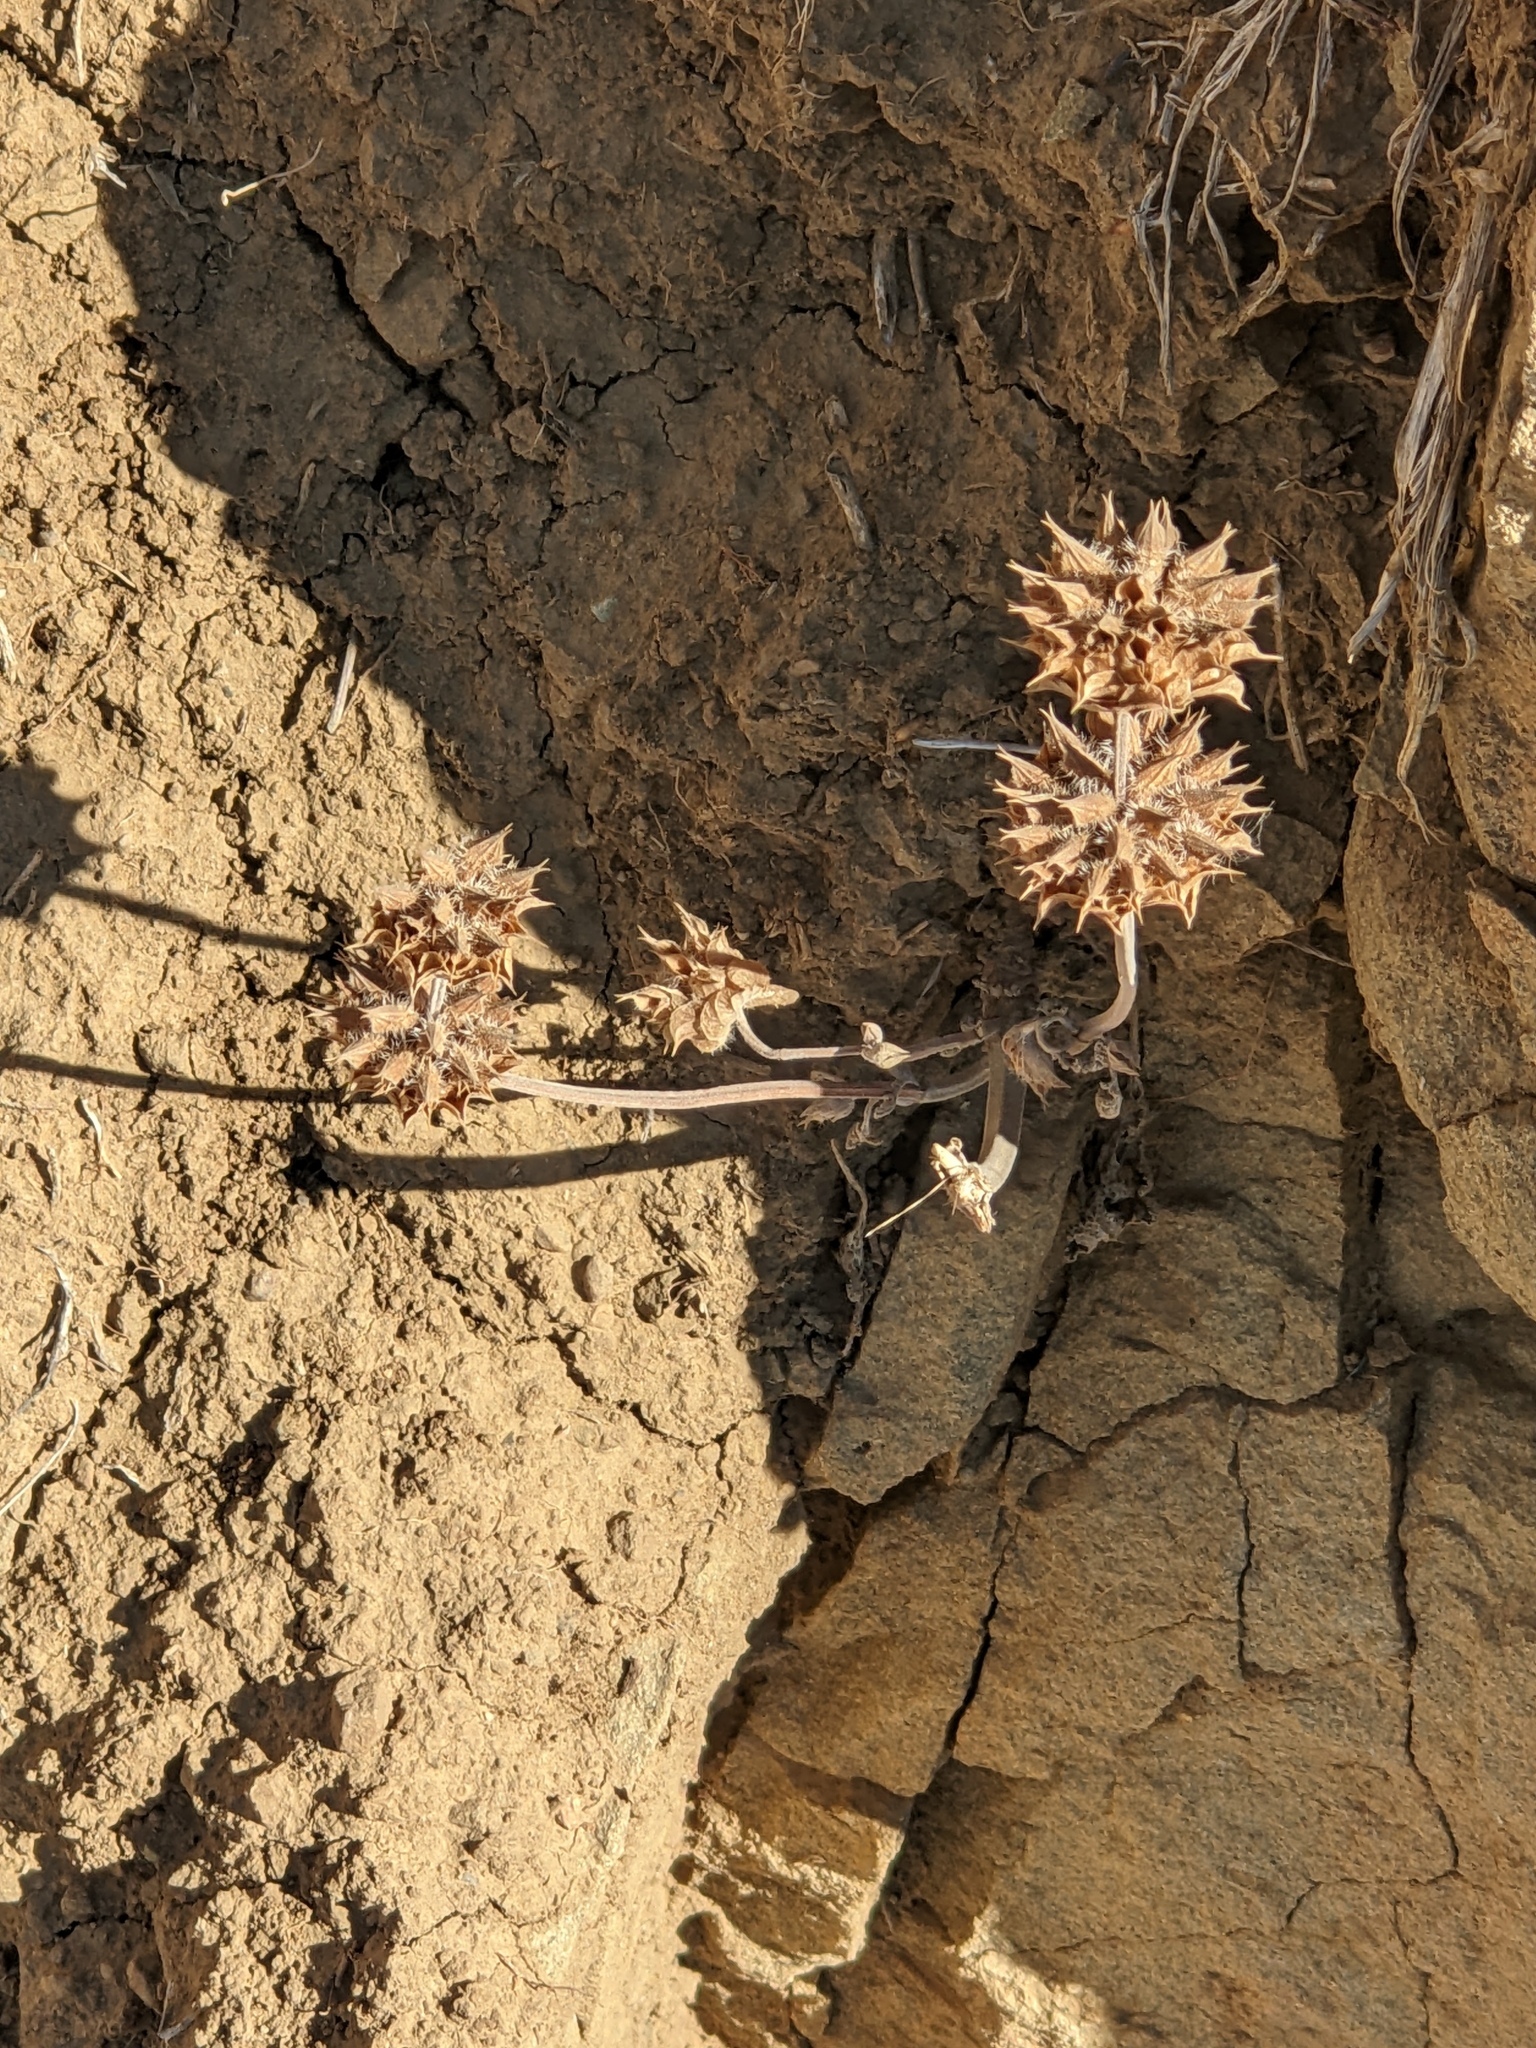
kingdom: Plantae
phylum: Tracheophyta
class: Magnoliopsida
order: Lamiales
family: Lamiaceae
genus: Salvia
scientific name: Salvia columbariae
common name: Chia
